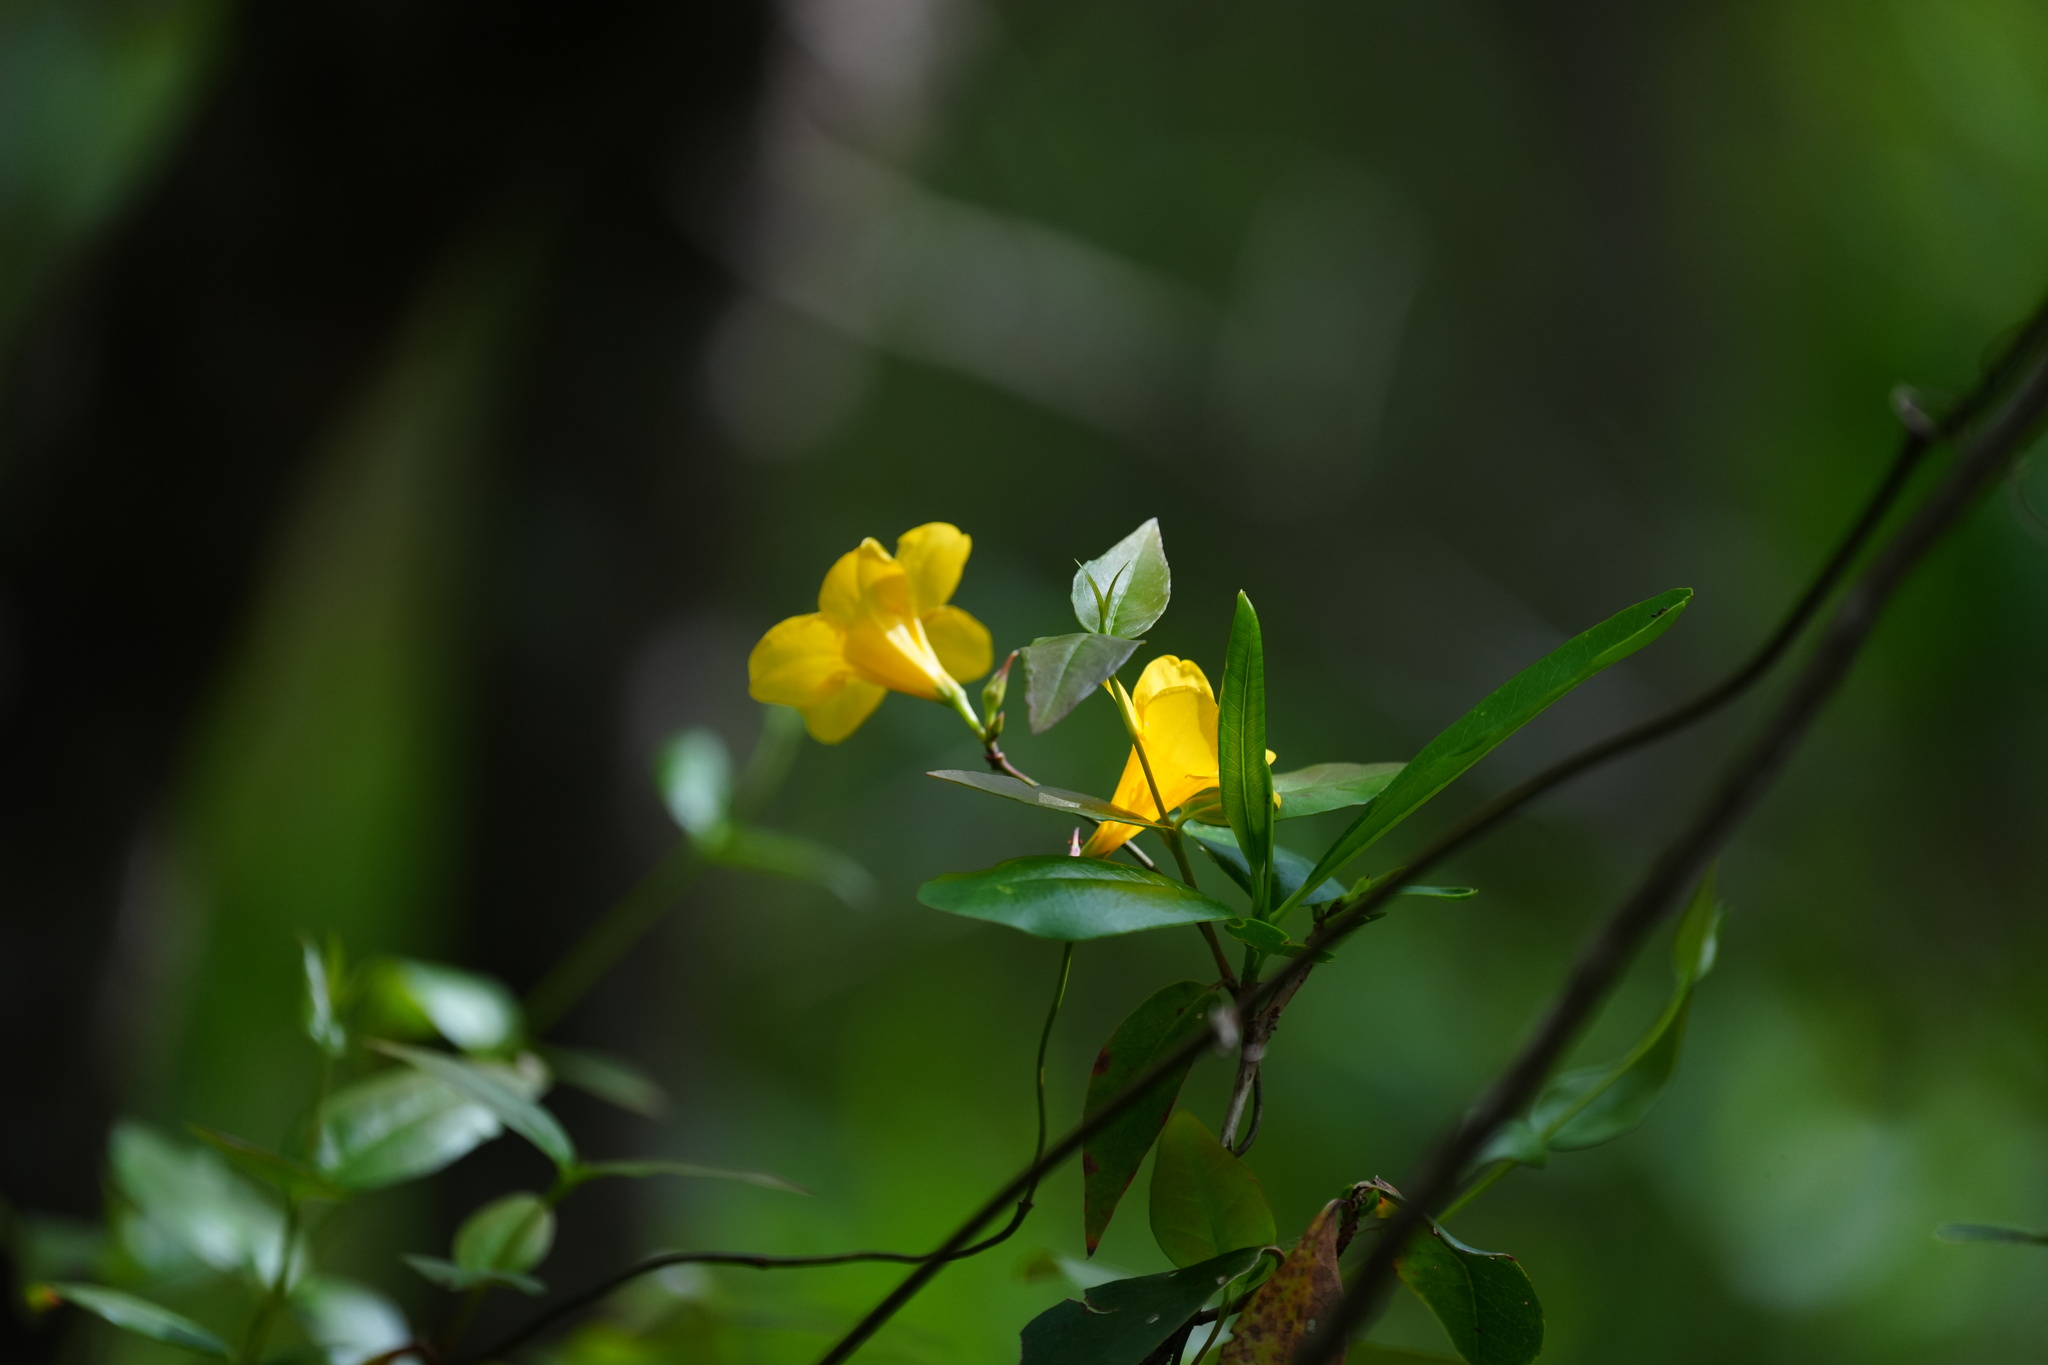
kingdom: Plantae
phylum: Tracheophyta
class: Magnoliopsida
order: Gentianales
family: Gelsemiaceae
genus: Gelsemium
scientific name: Gelsemium sempervirens
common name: Carolina-jasmine
